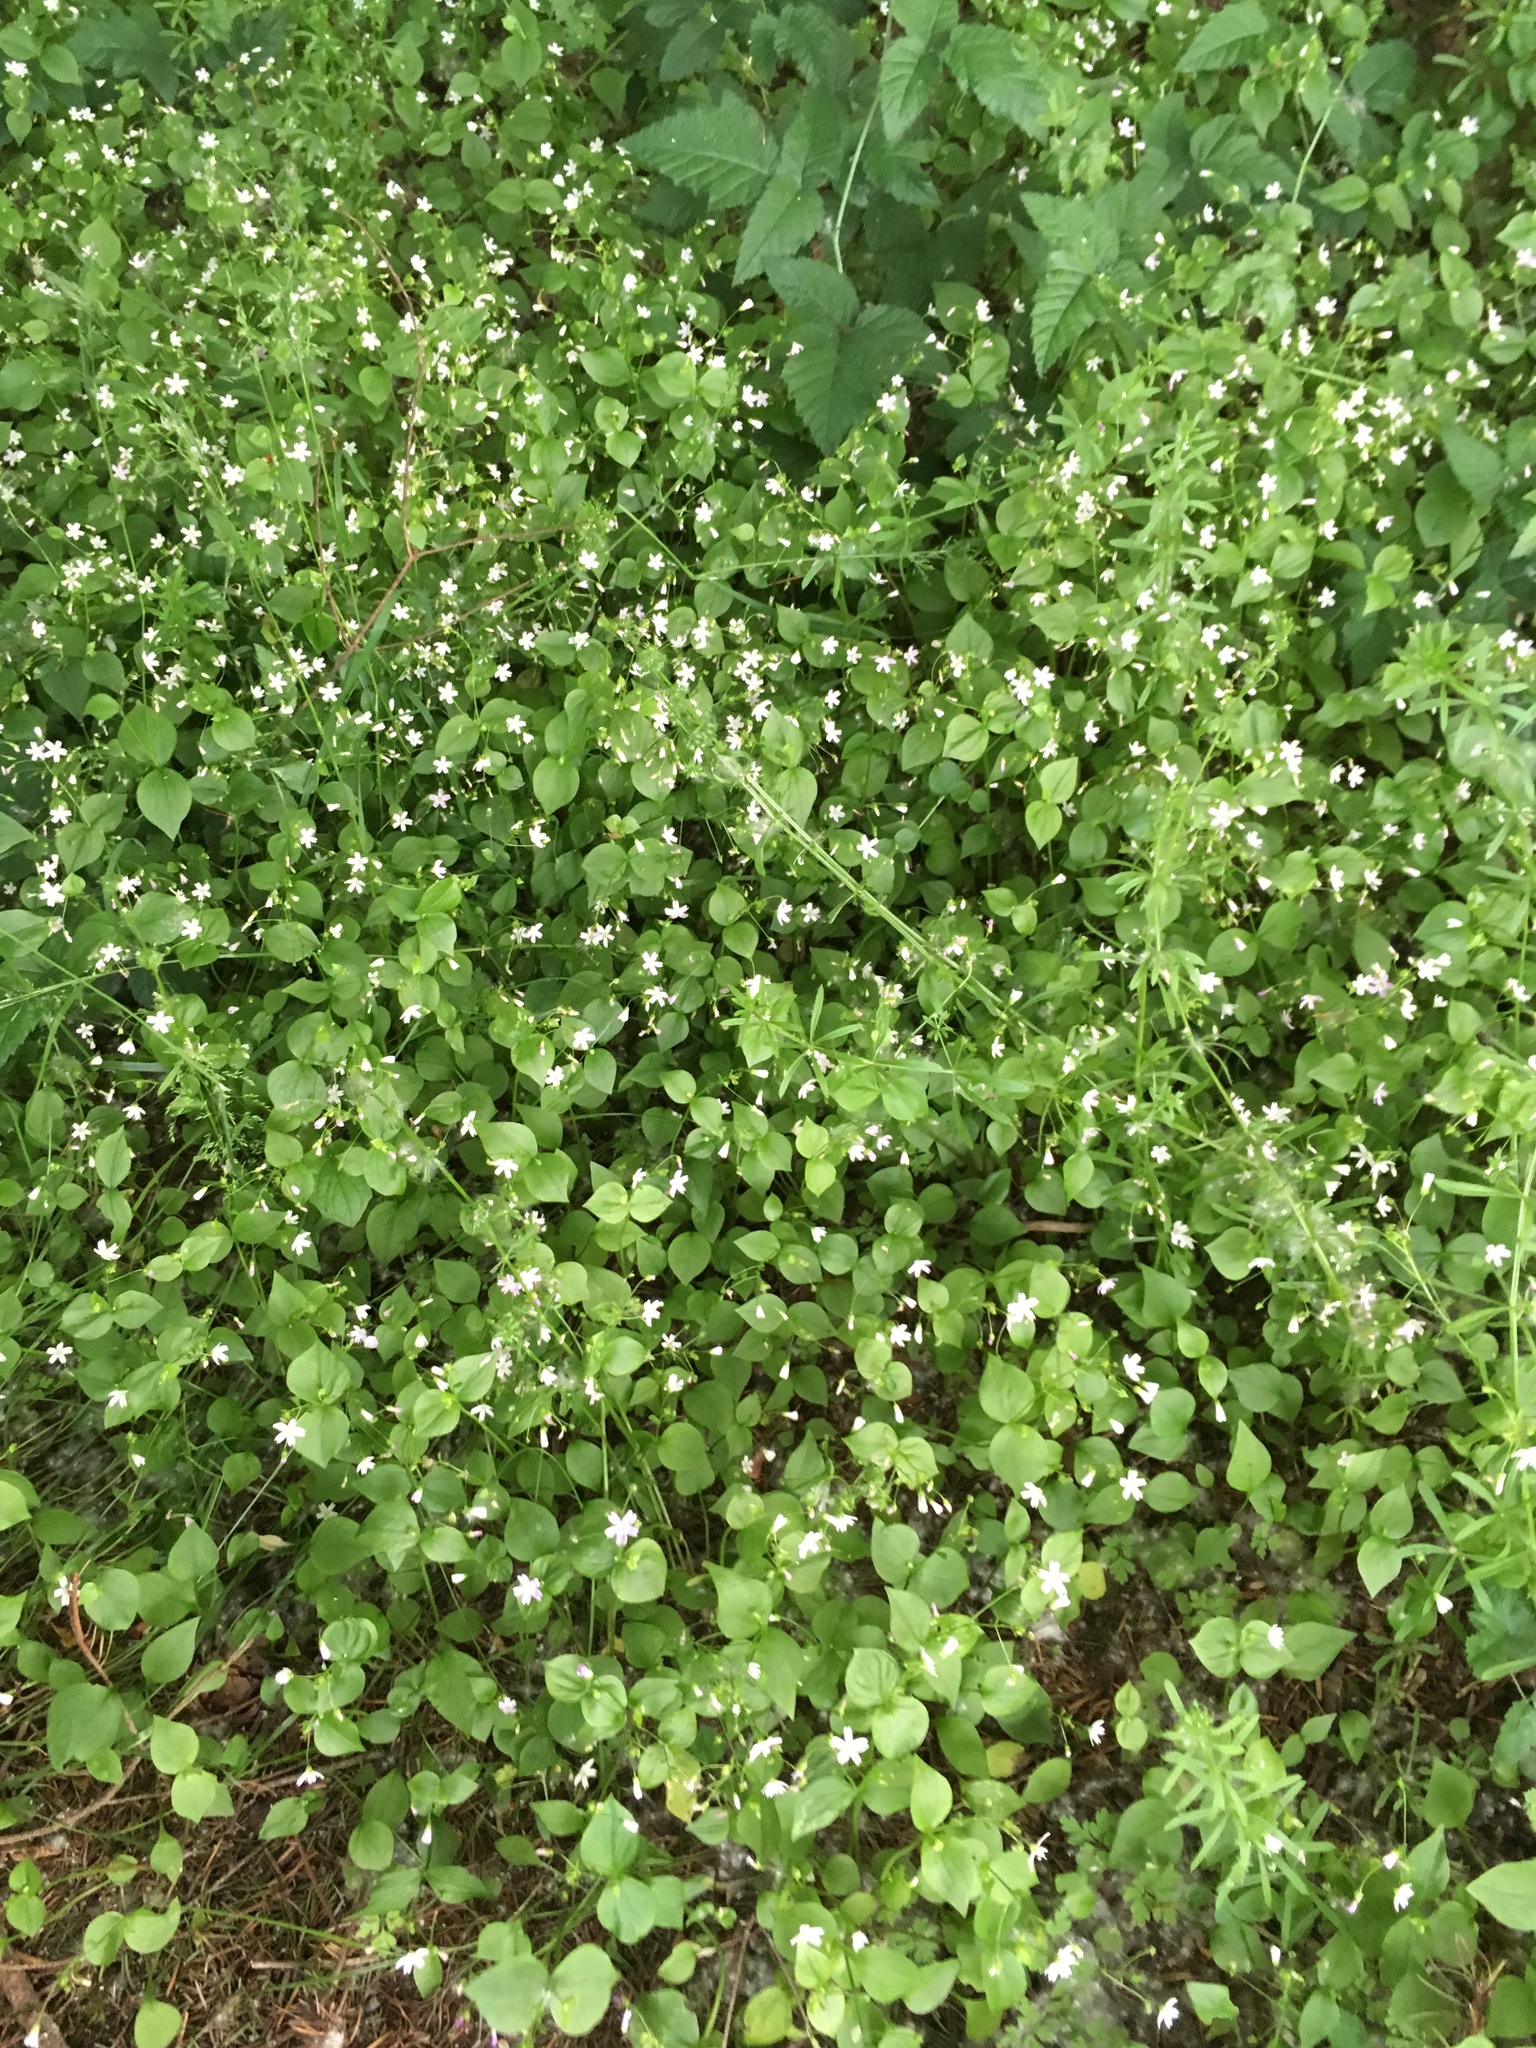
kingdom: Plantae
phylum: Tracheophyta
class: Magnoliopsida
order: Caryophyllales
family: Montiaceae
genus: Claytonia
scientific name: Claytonia sibirica
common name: Pink purslane
